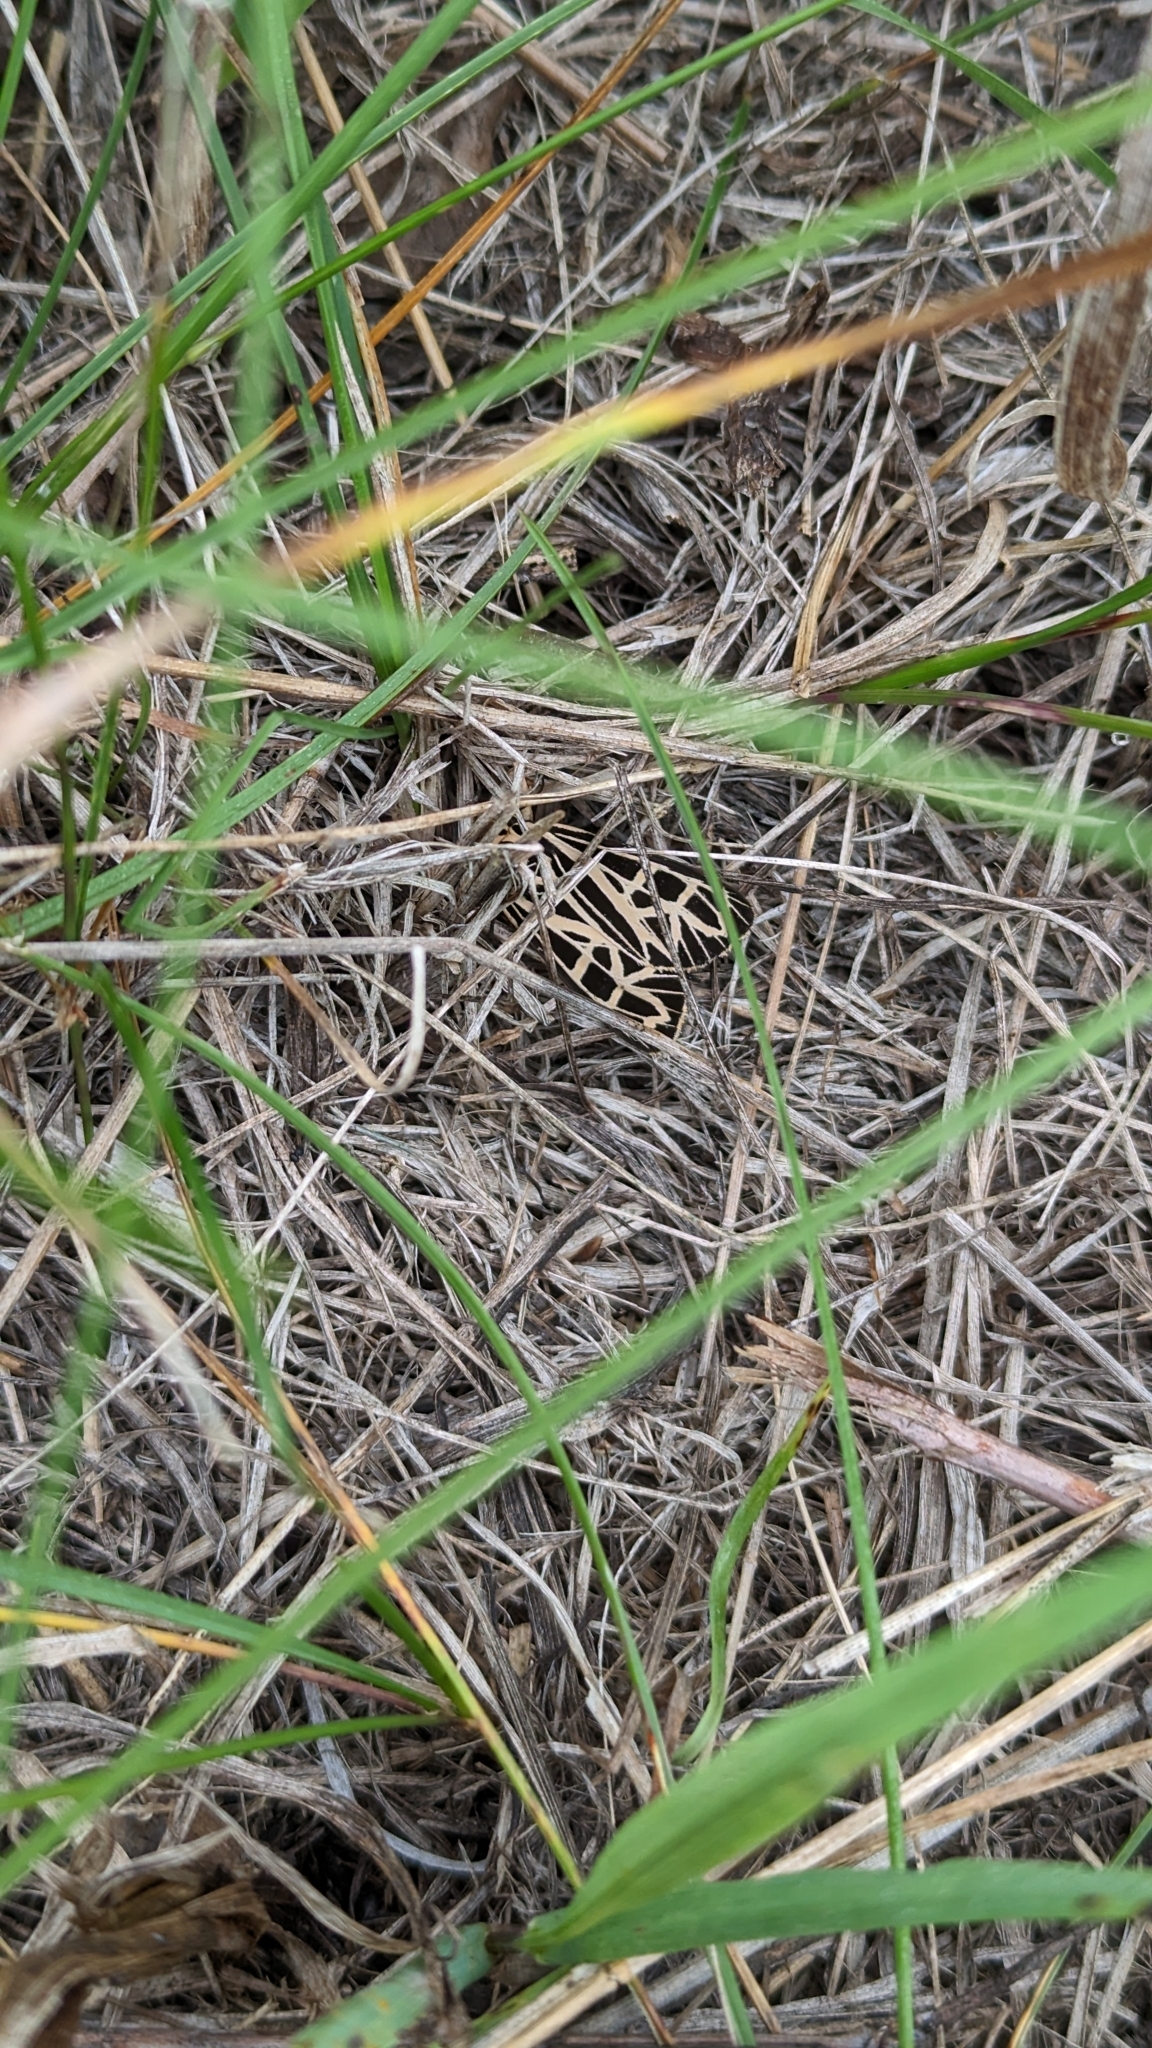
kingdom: Animalia
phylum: Arthropoda
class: Insecta
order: Lepidoptera
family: Erebidae
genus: Grammia
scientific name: Grammia parthenice
